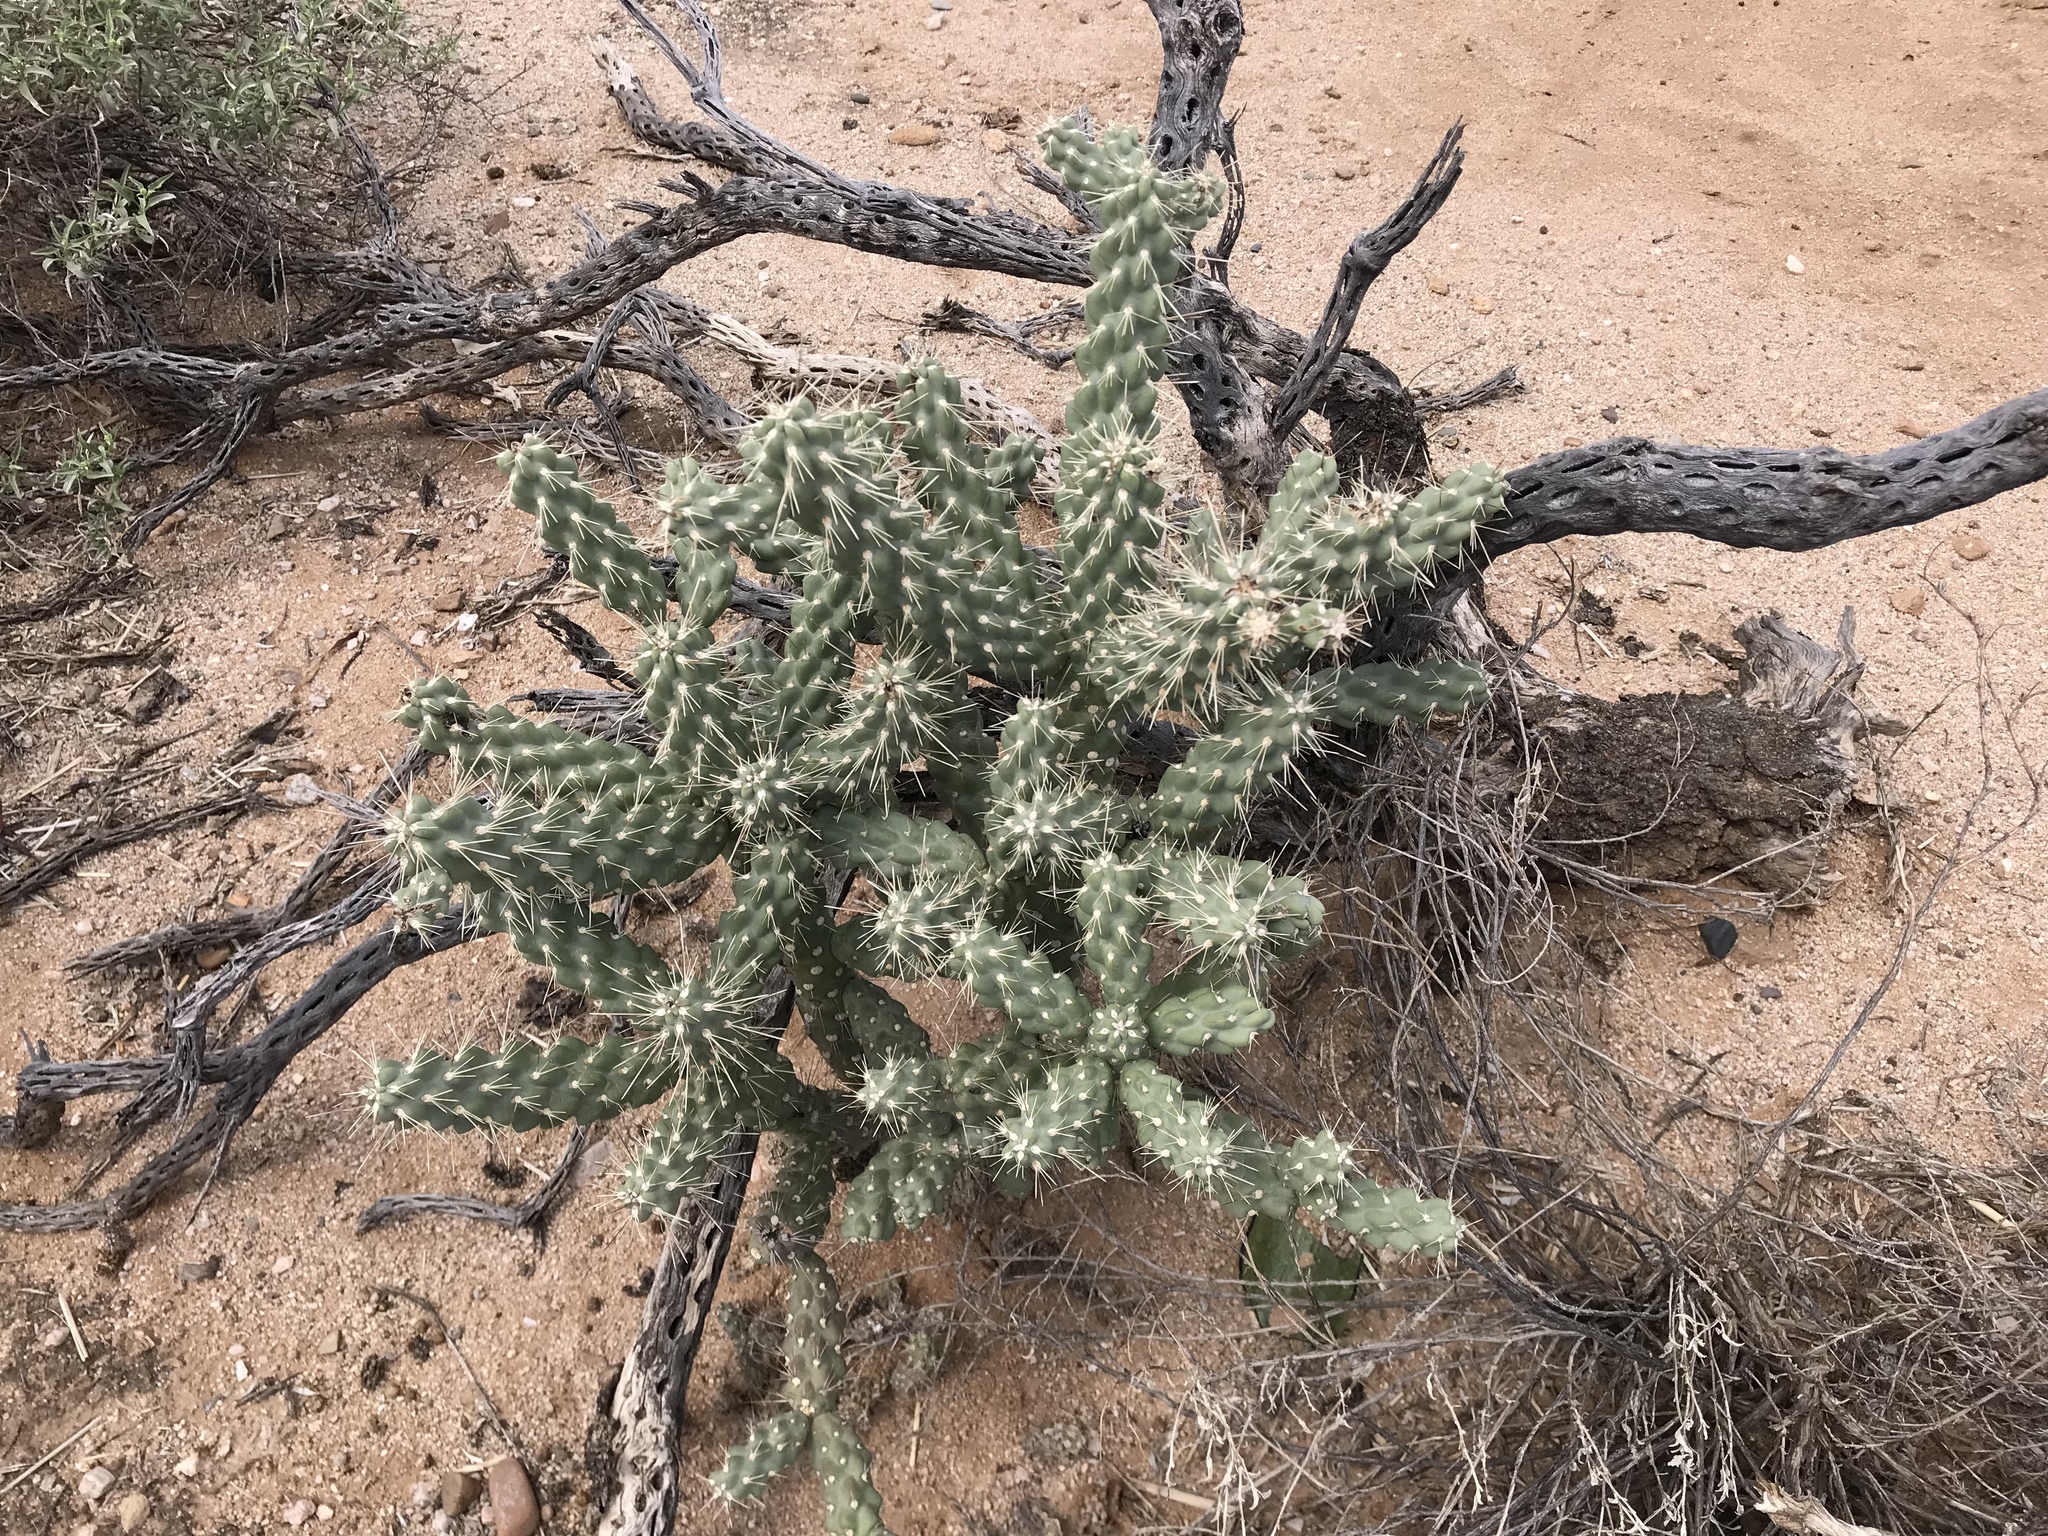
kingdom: Plantae
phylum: Tracheophyta
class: Magnoliopsida
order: Caryophyllales
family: Cactaceae
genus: Cylindropuntia
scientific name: Cylindropuntia fulgida
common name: Jumping cholla
